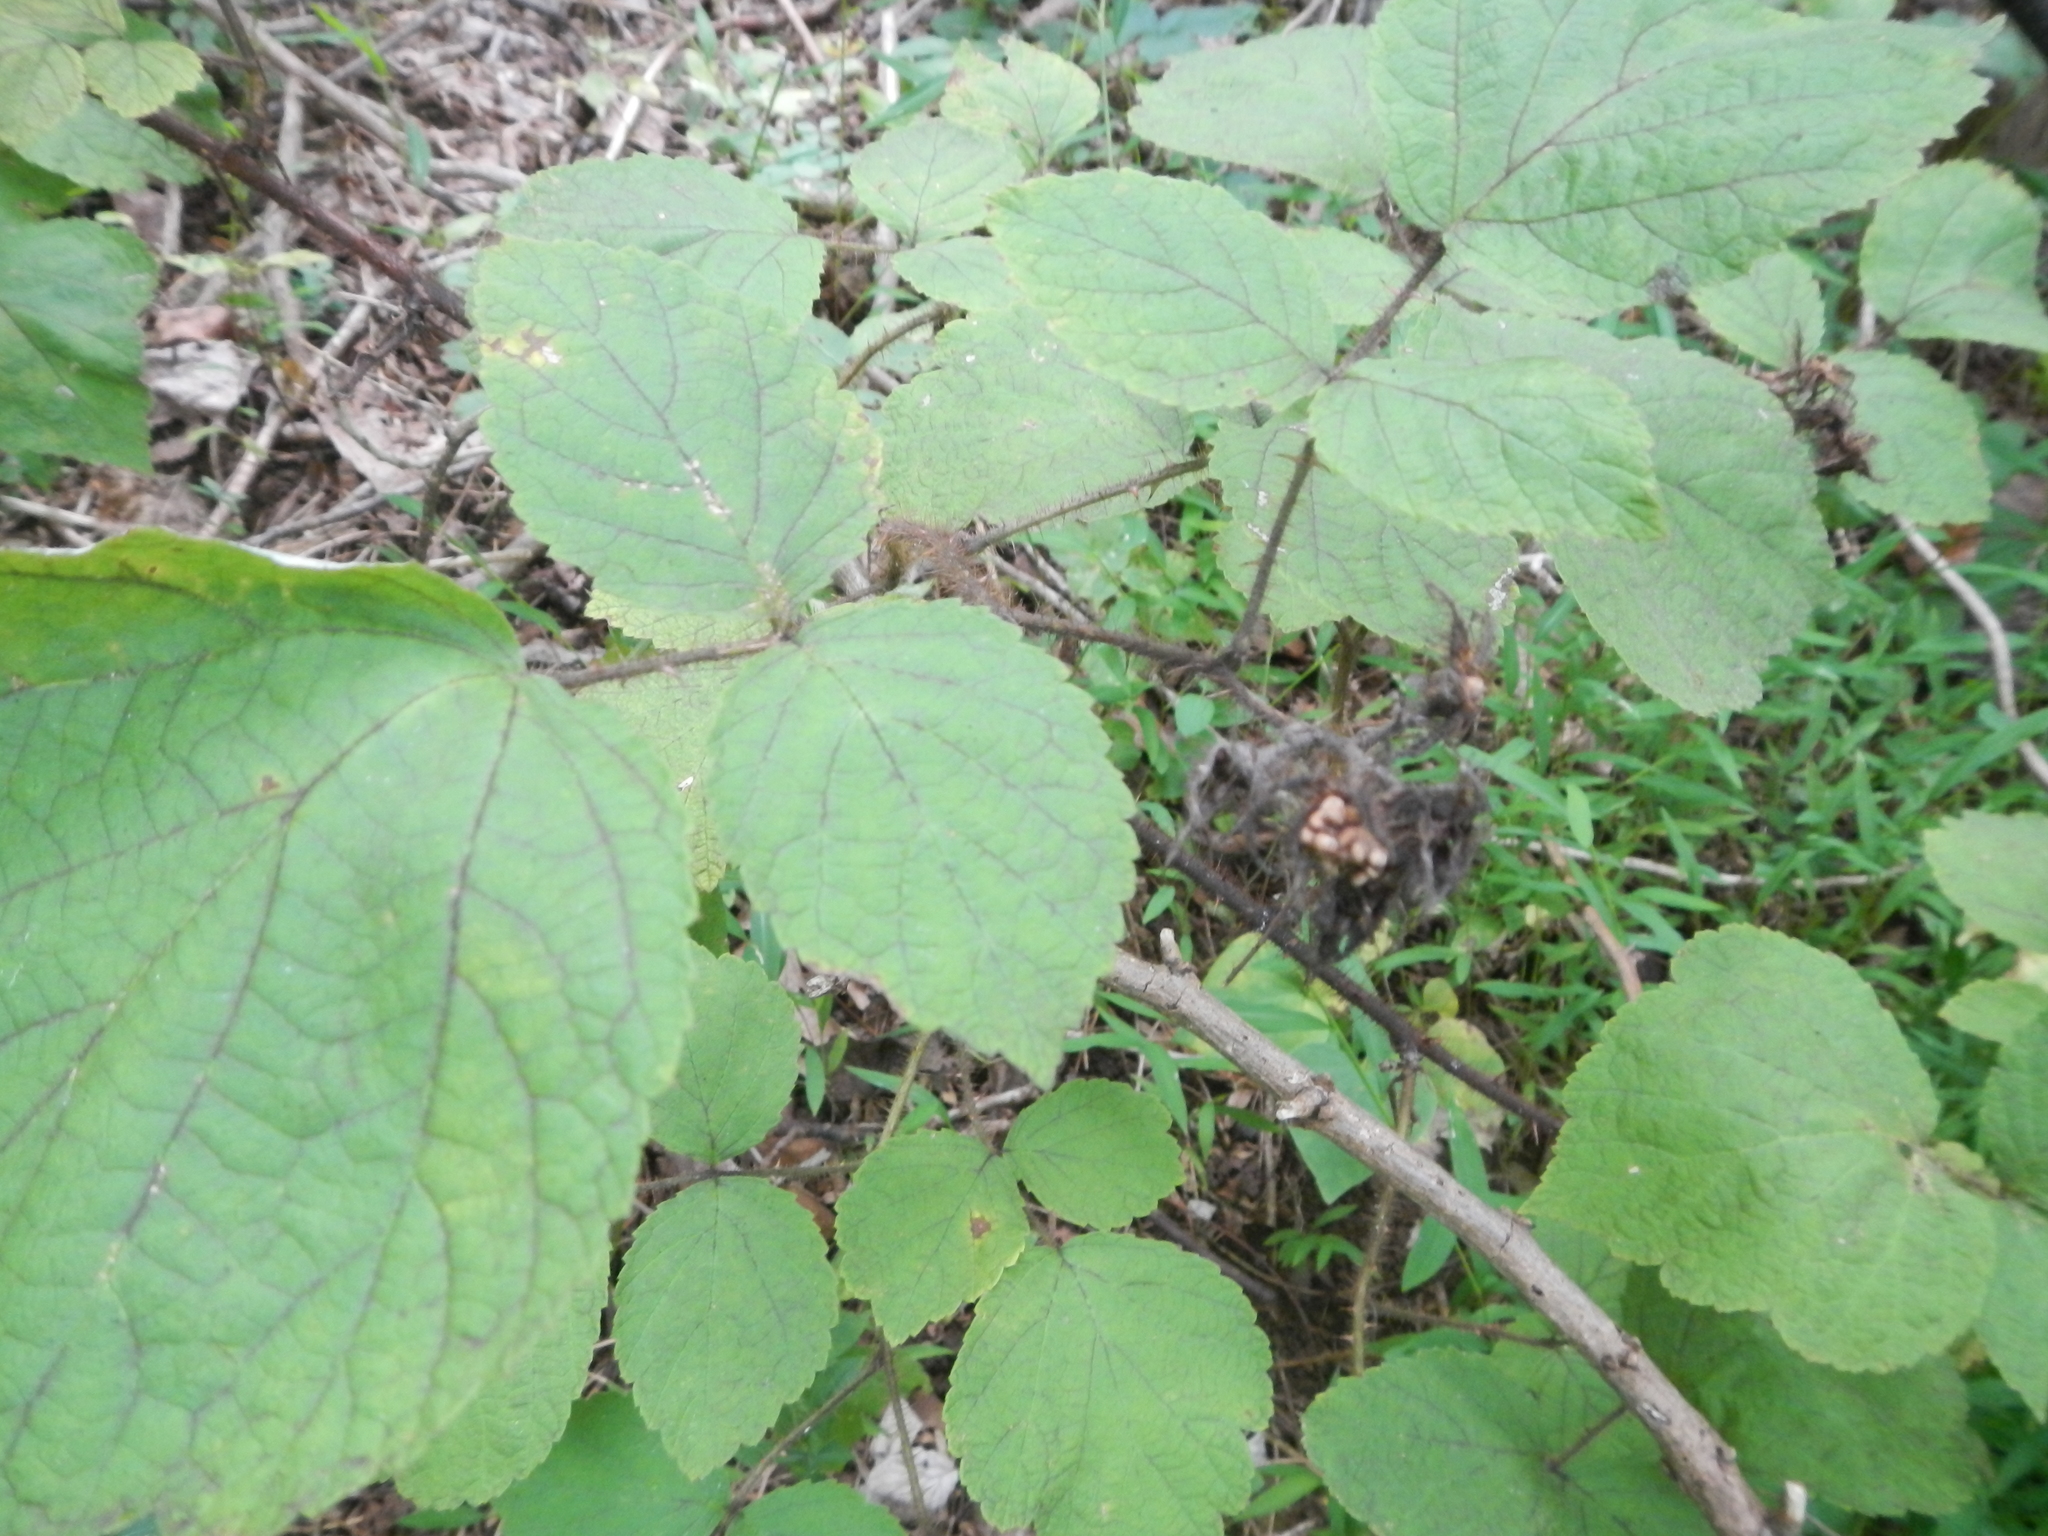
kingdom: Plantae
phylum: Tracheophyta
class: Magnoliopsida
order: Rosales
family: Rosaceae
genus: Rubus
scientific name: Rubus phoenicolasius
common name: Japanese wineberry
